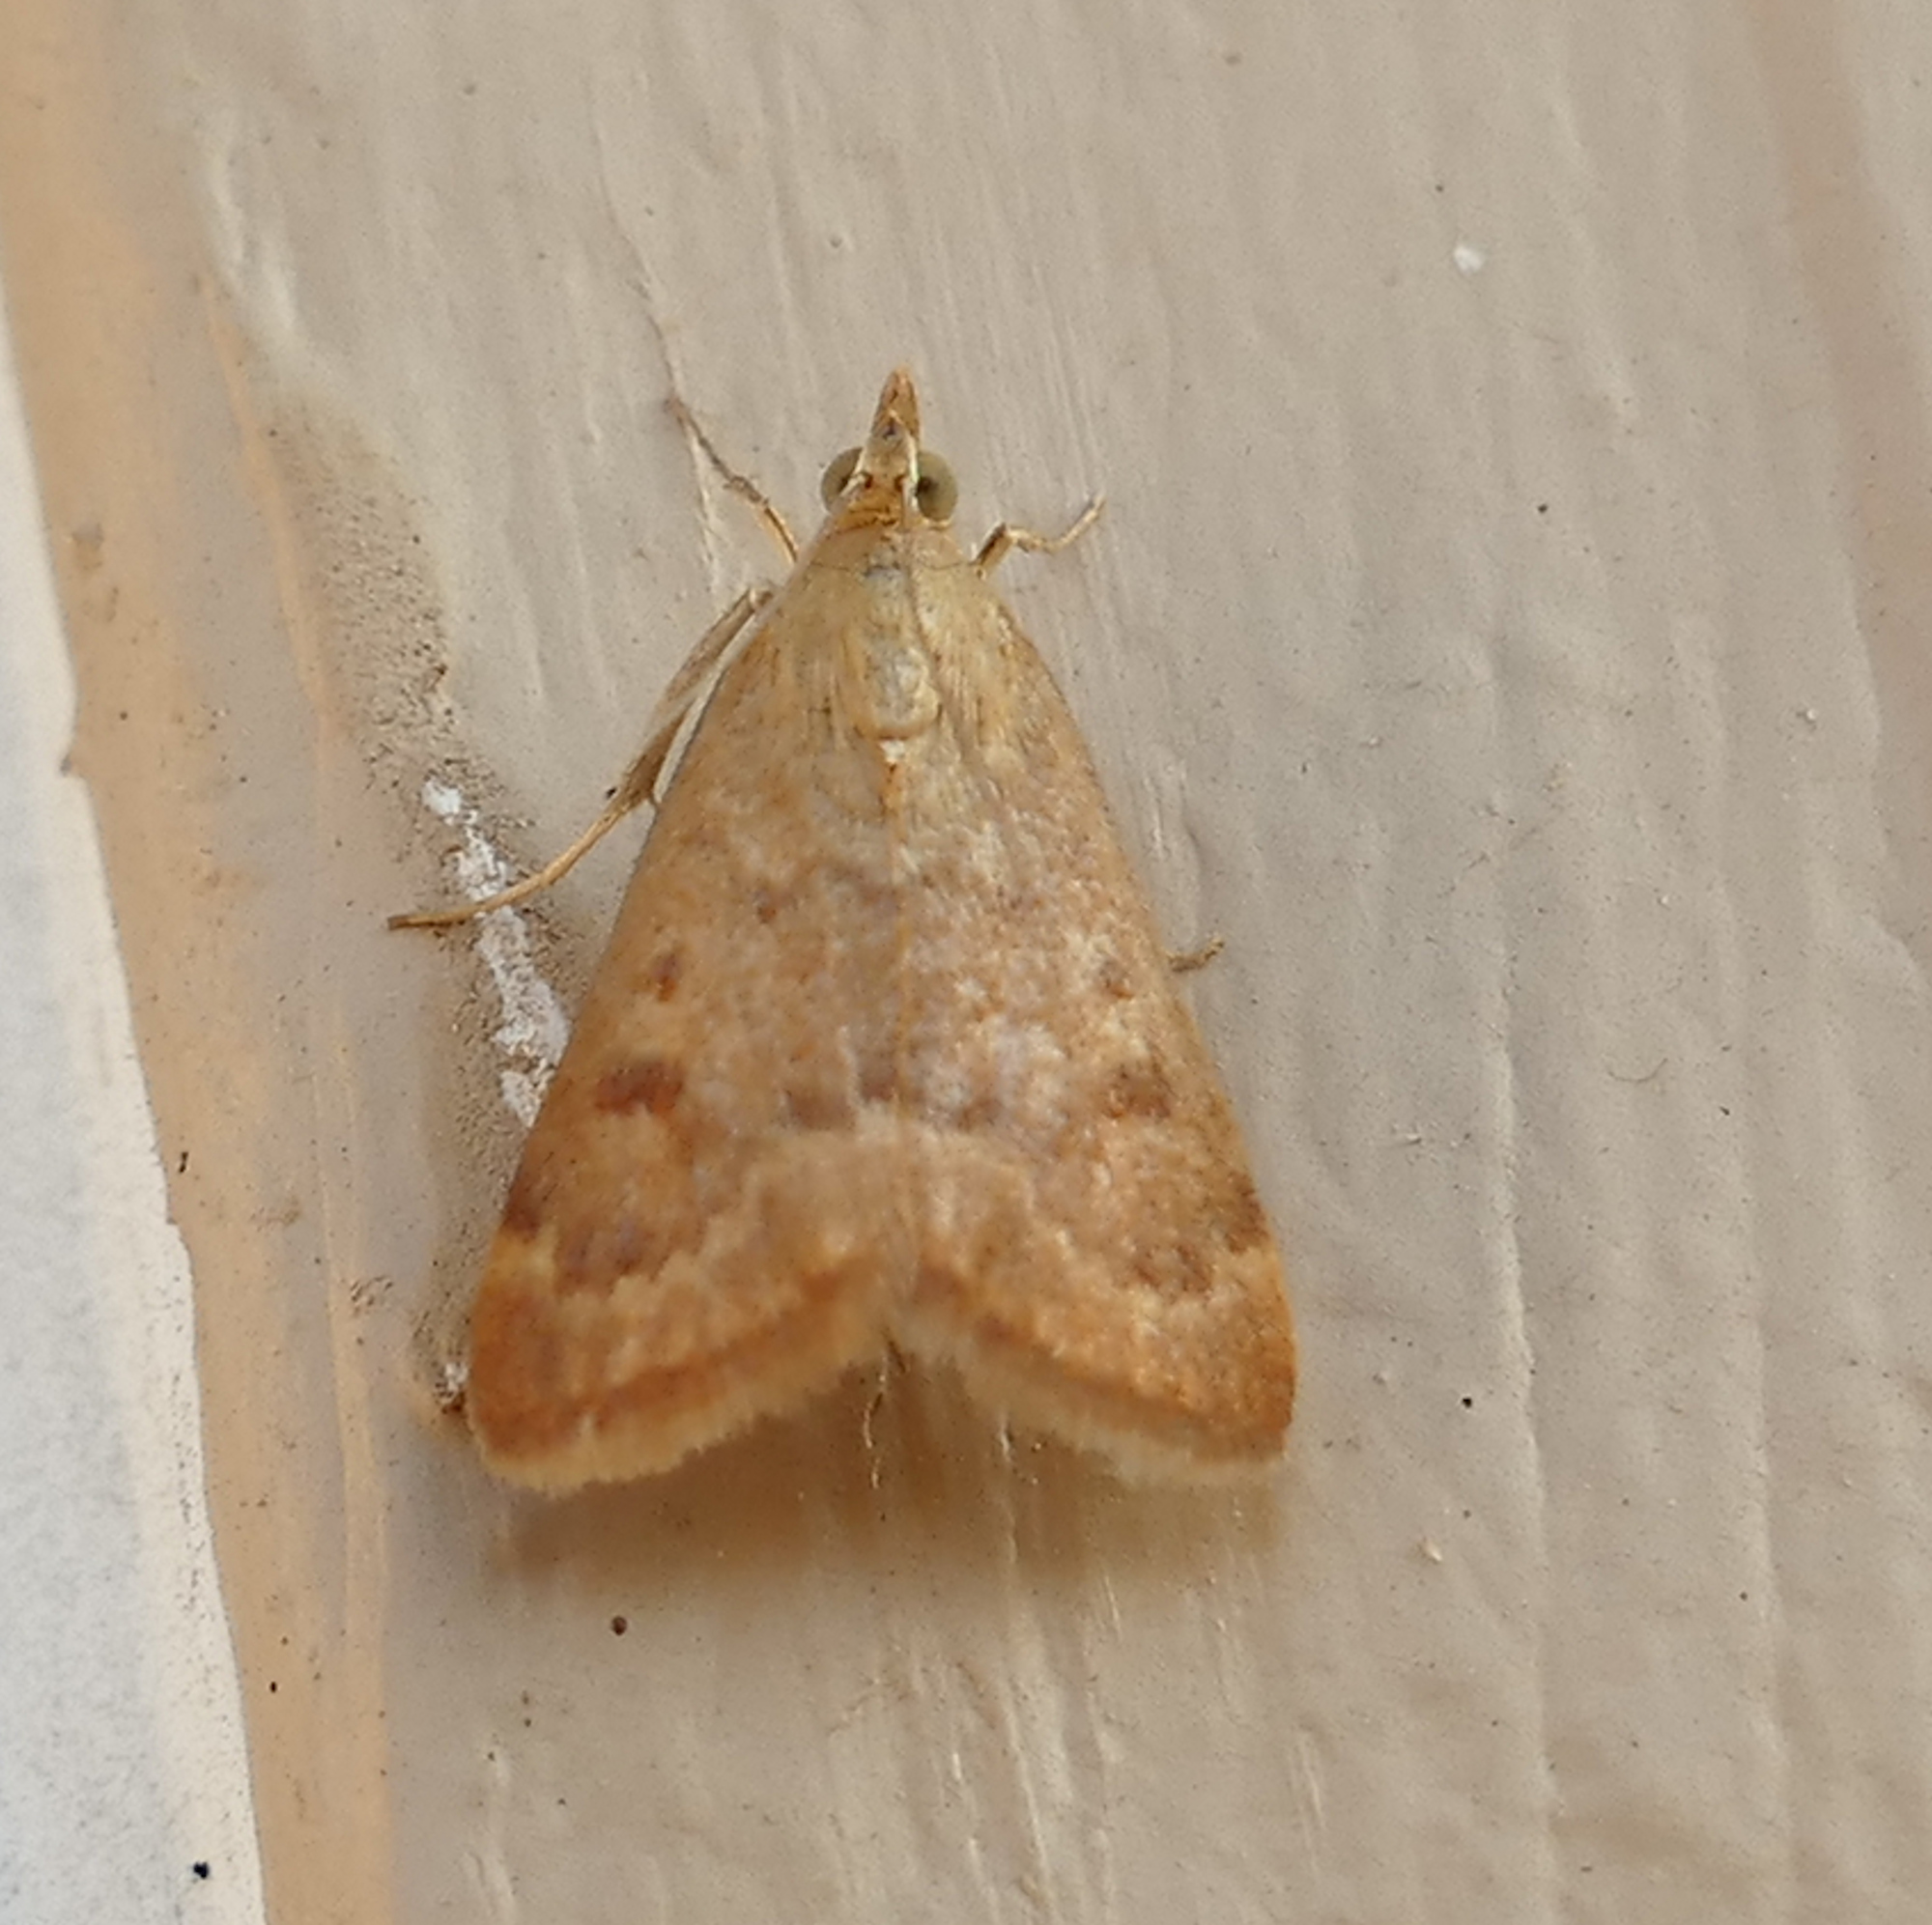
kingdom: Animalia
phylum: Arthropoda
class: Insecta
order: Lepidoptera
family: Crambidae
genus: Achyra
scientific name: Achyra rantalis
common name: Garden webworm
